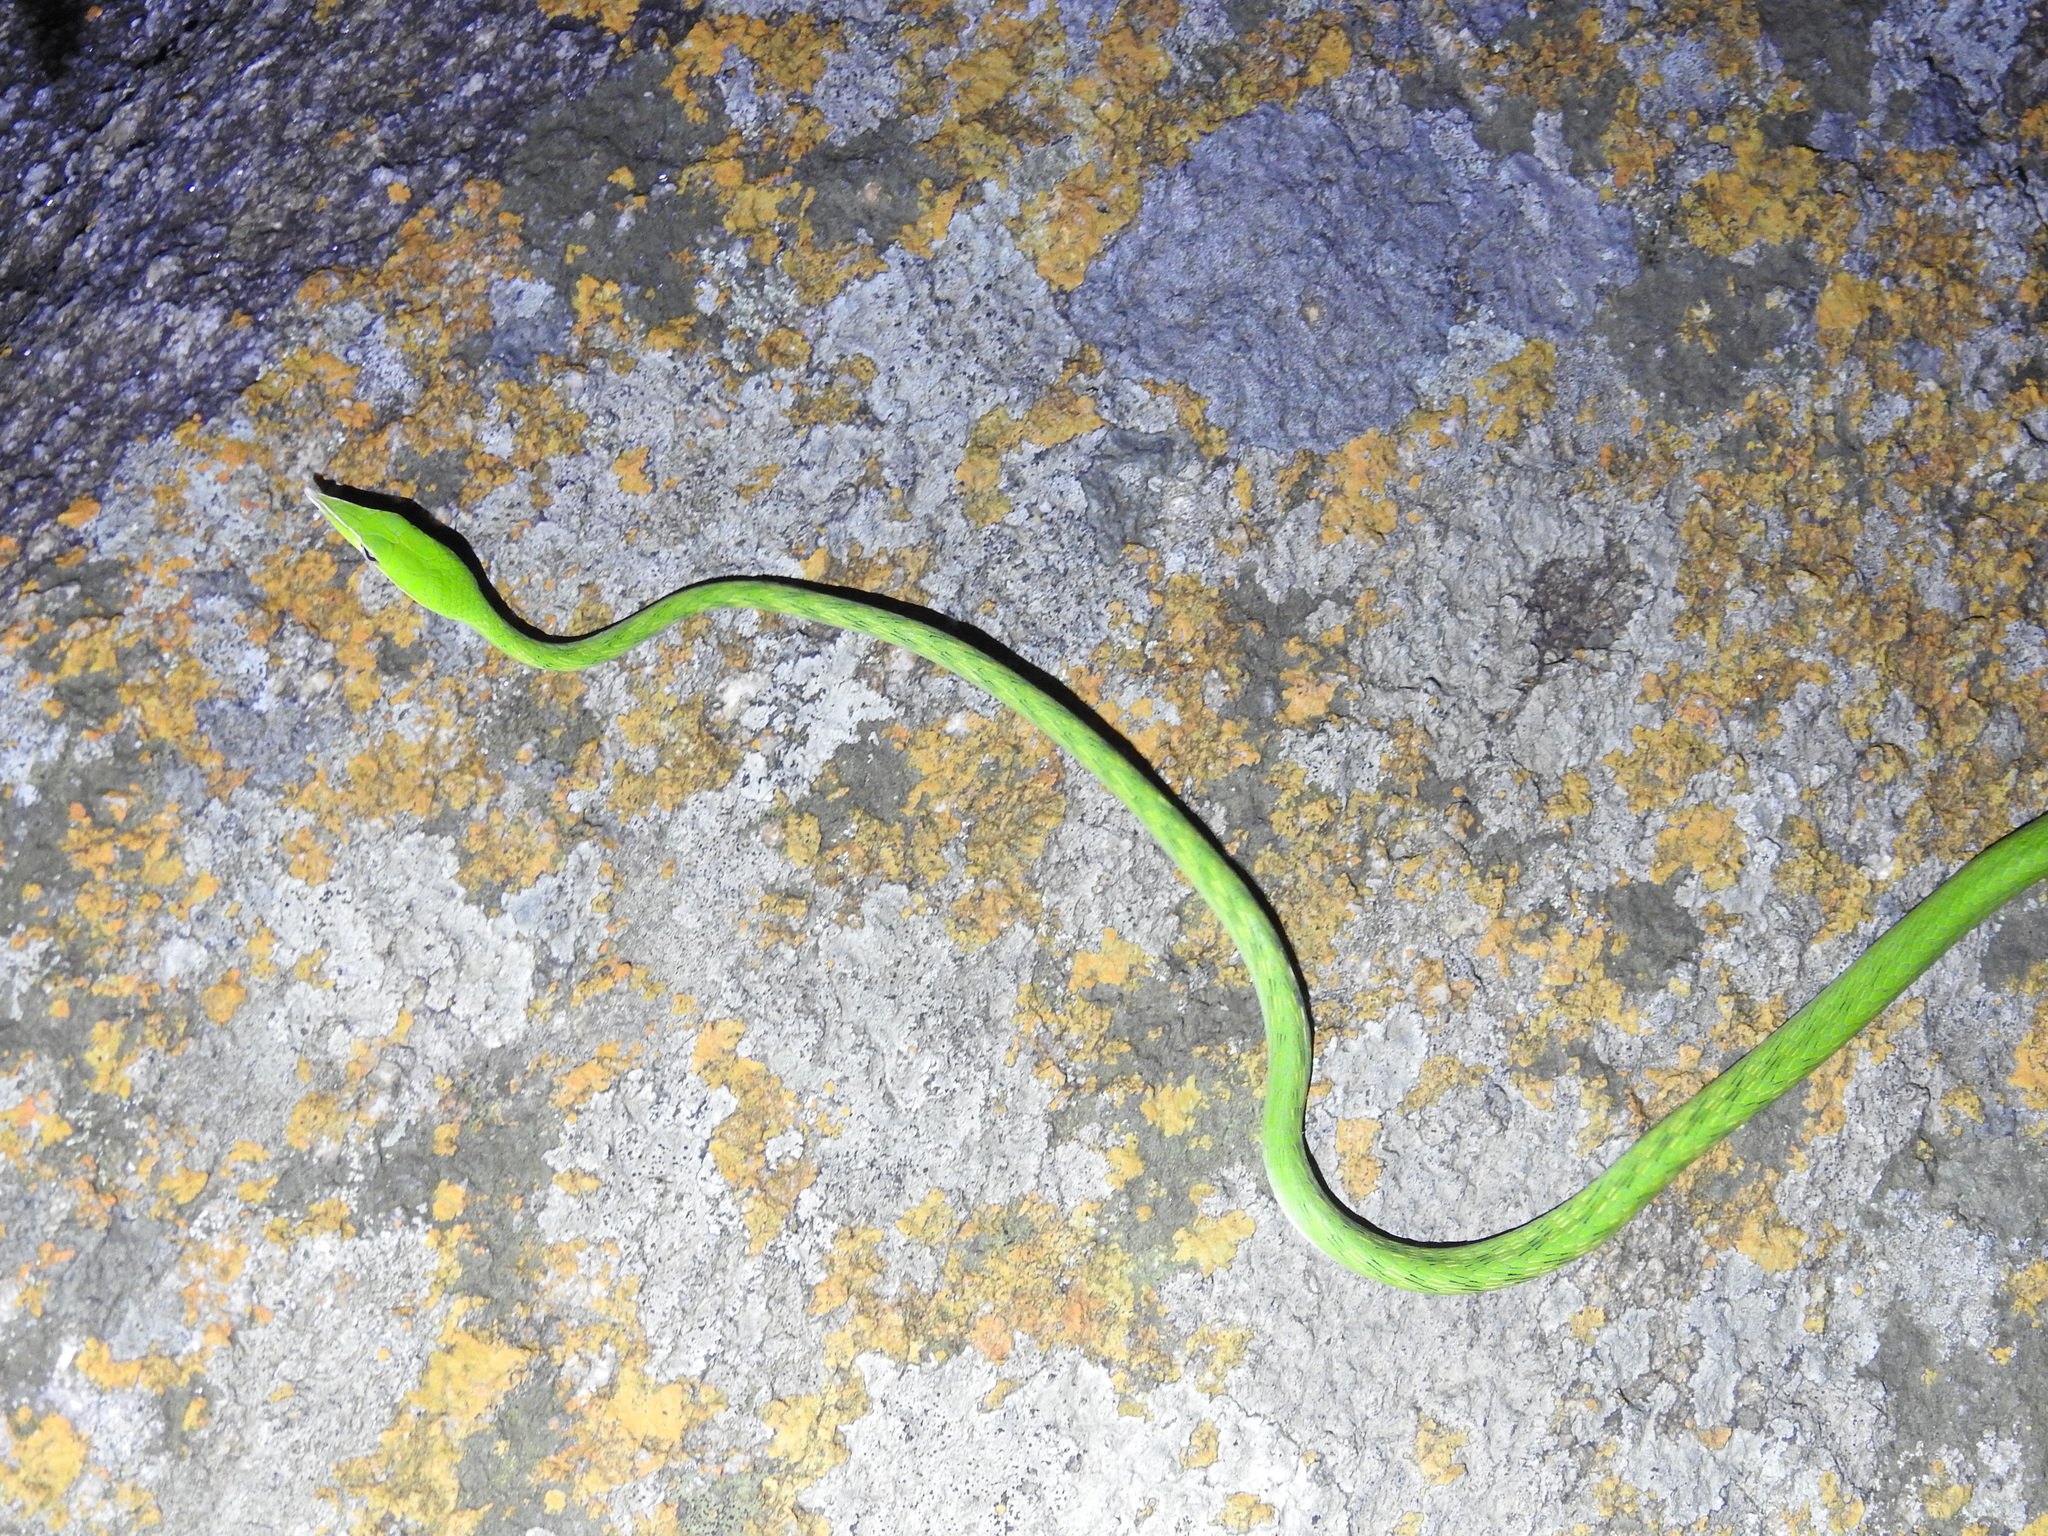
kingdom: Animalia
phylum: Chordata
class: Squamata
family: Colubridae
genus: Ahaetulla
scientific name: Ahaetulla oxyrhyncha
